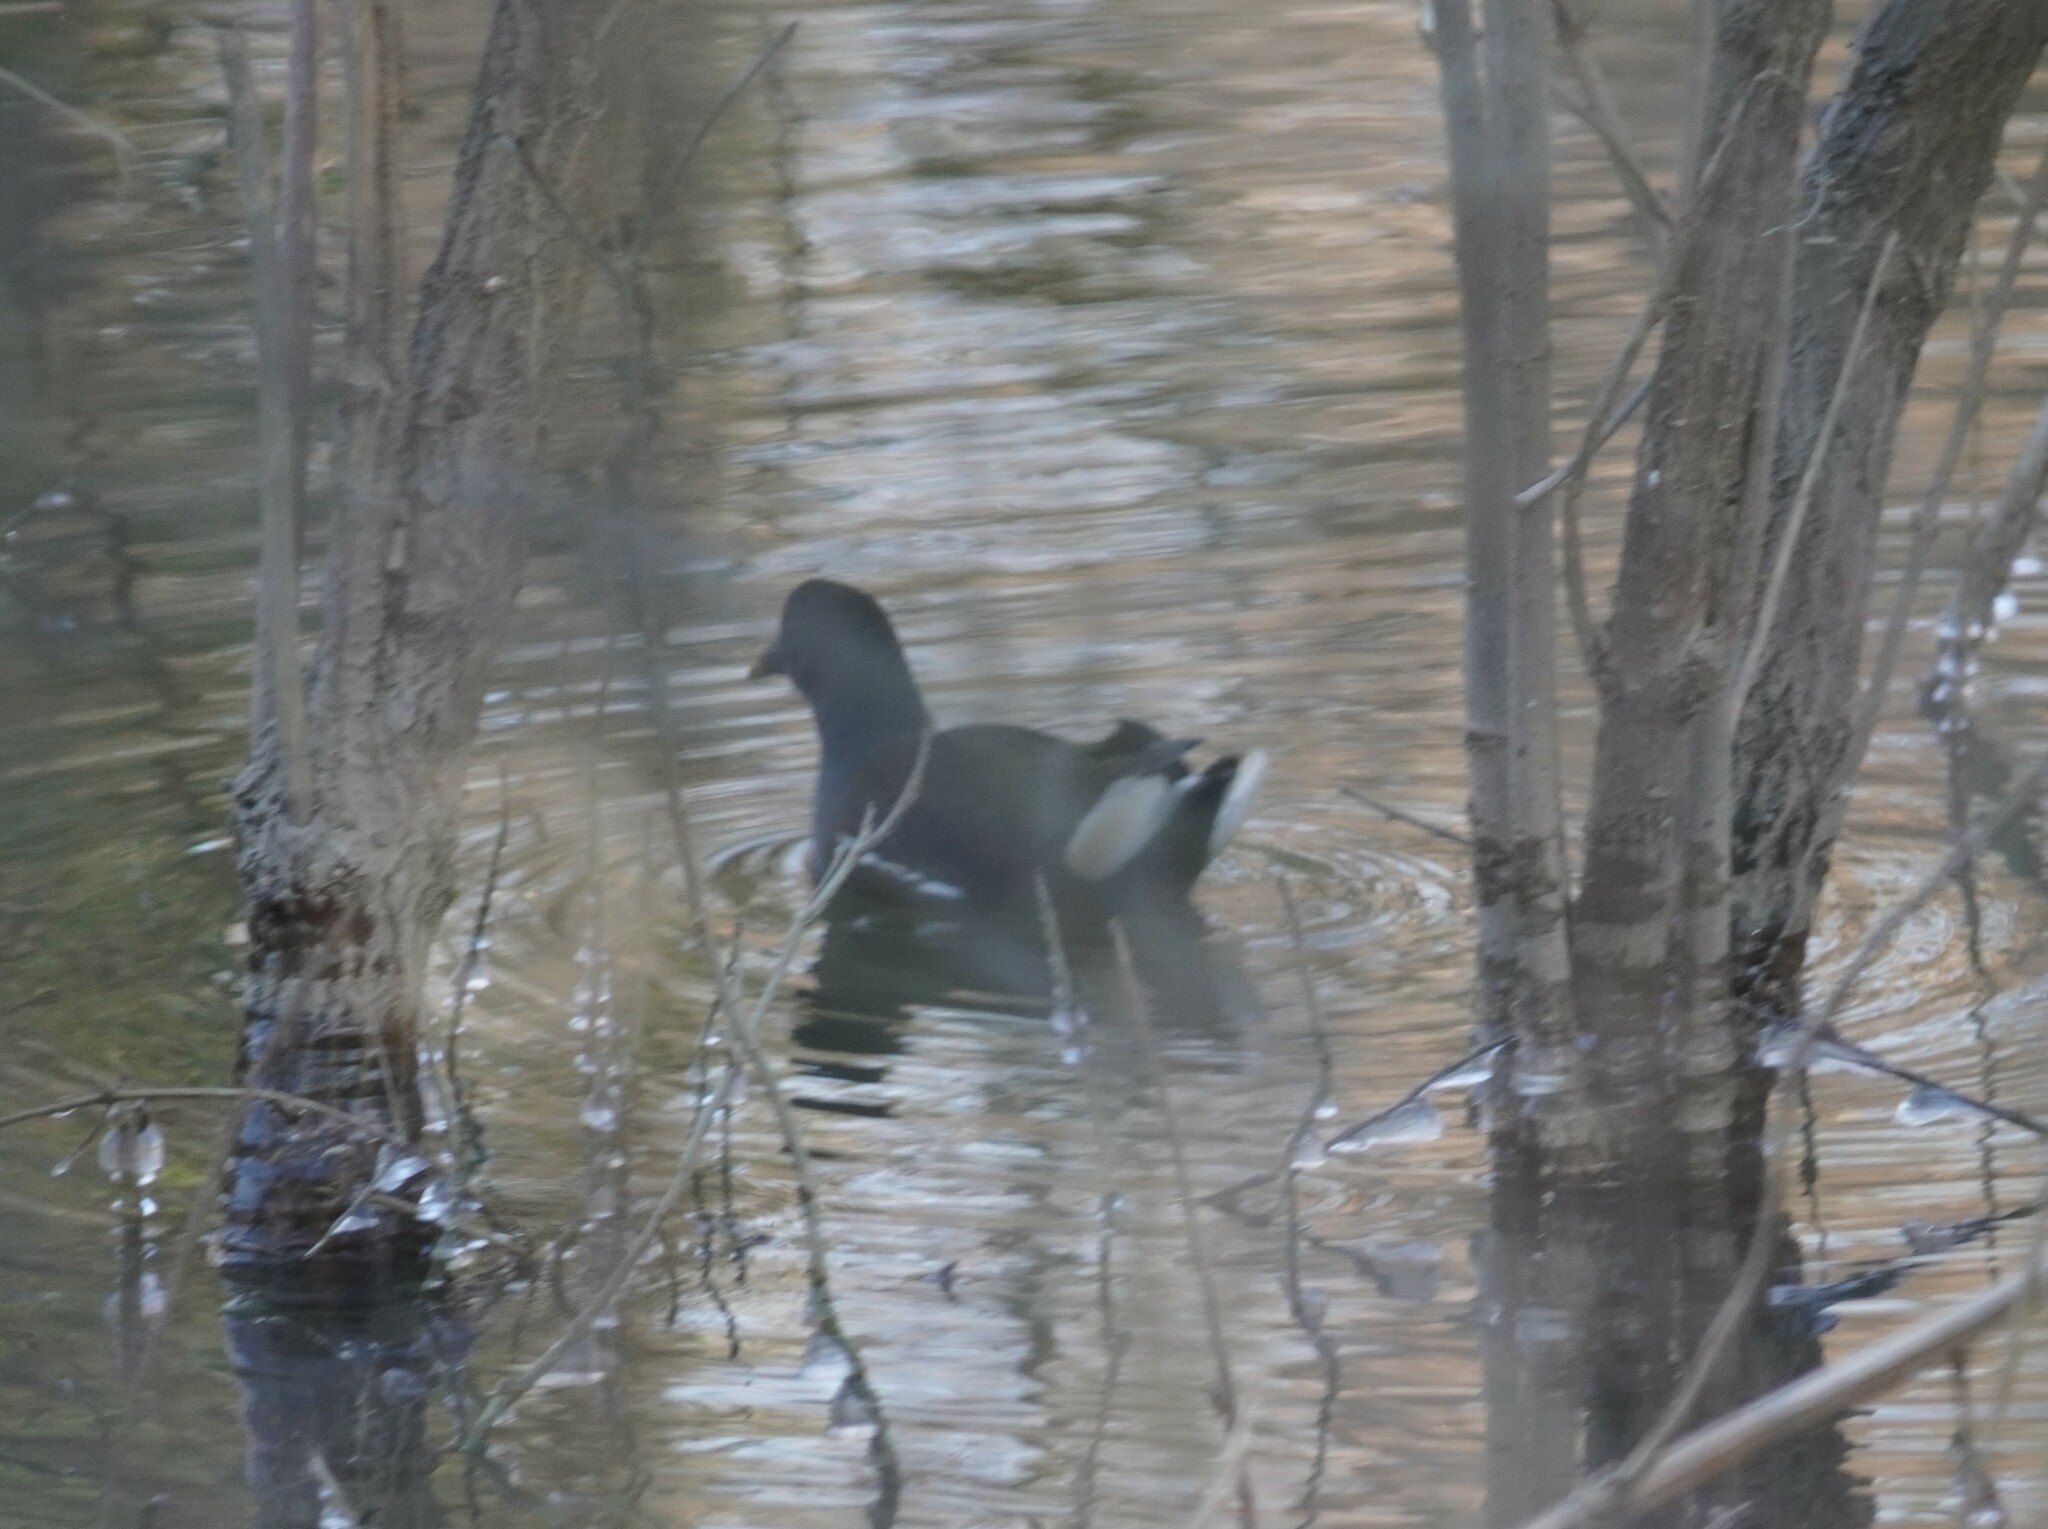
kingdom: Animalia
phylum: Chordata
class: Aves
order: Gruiformes
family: Rallidae
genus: Gallinula
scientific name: Gallinula chloropus
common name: Common moorhen
